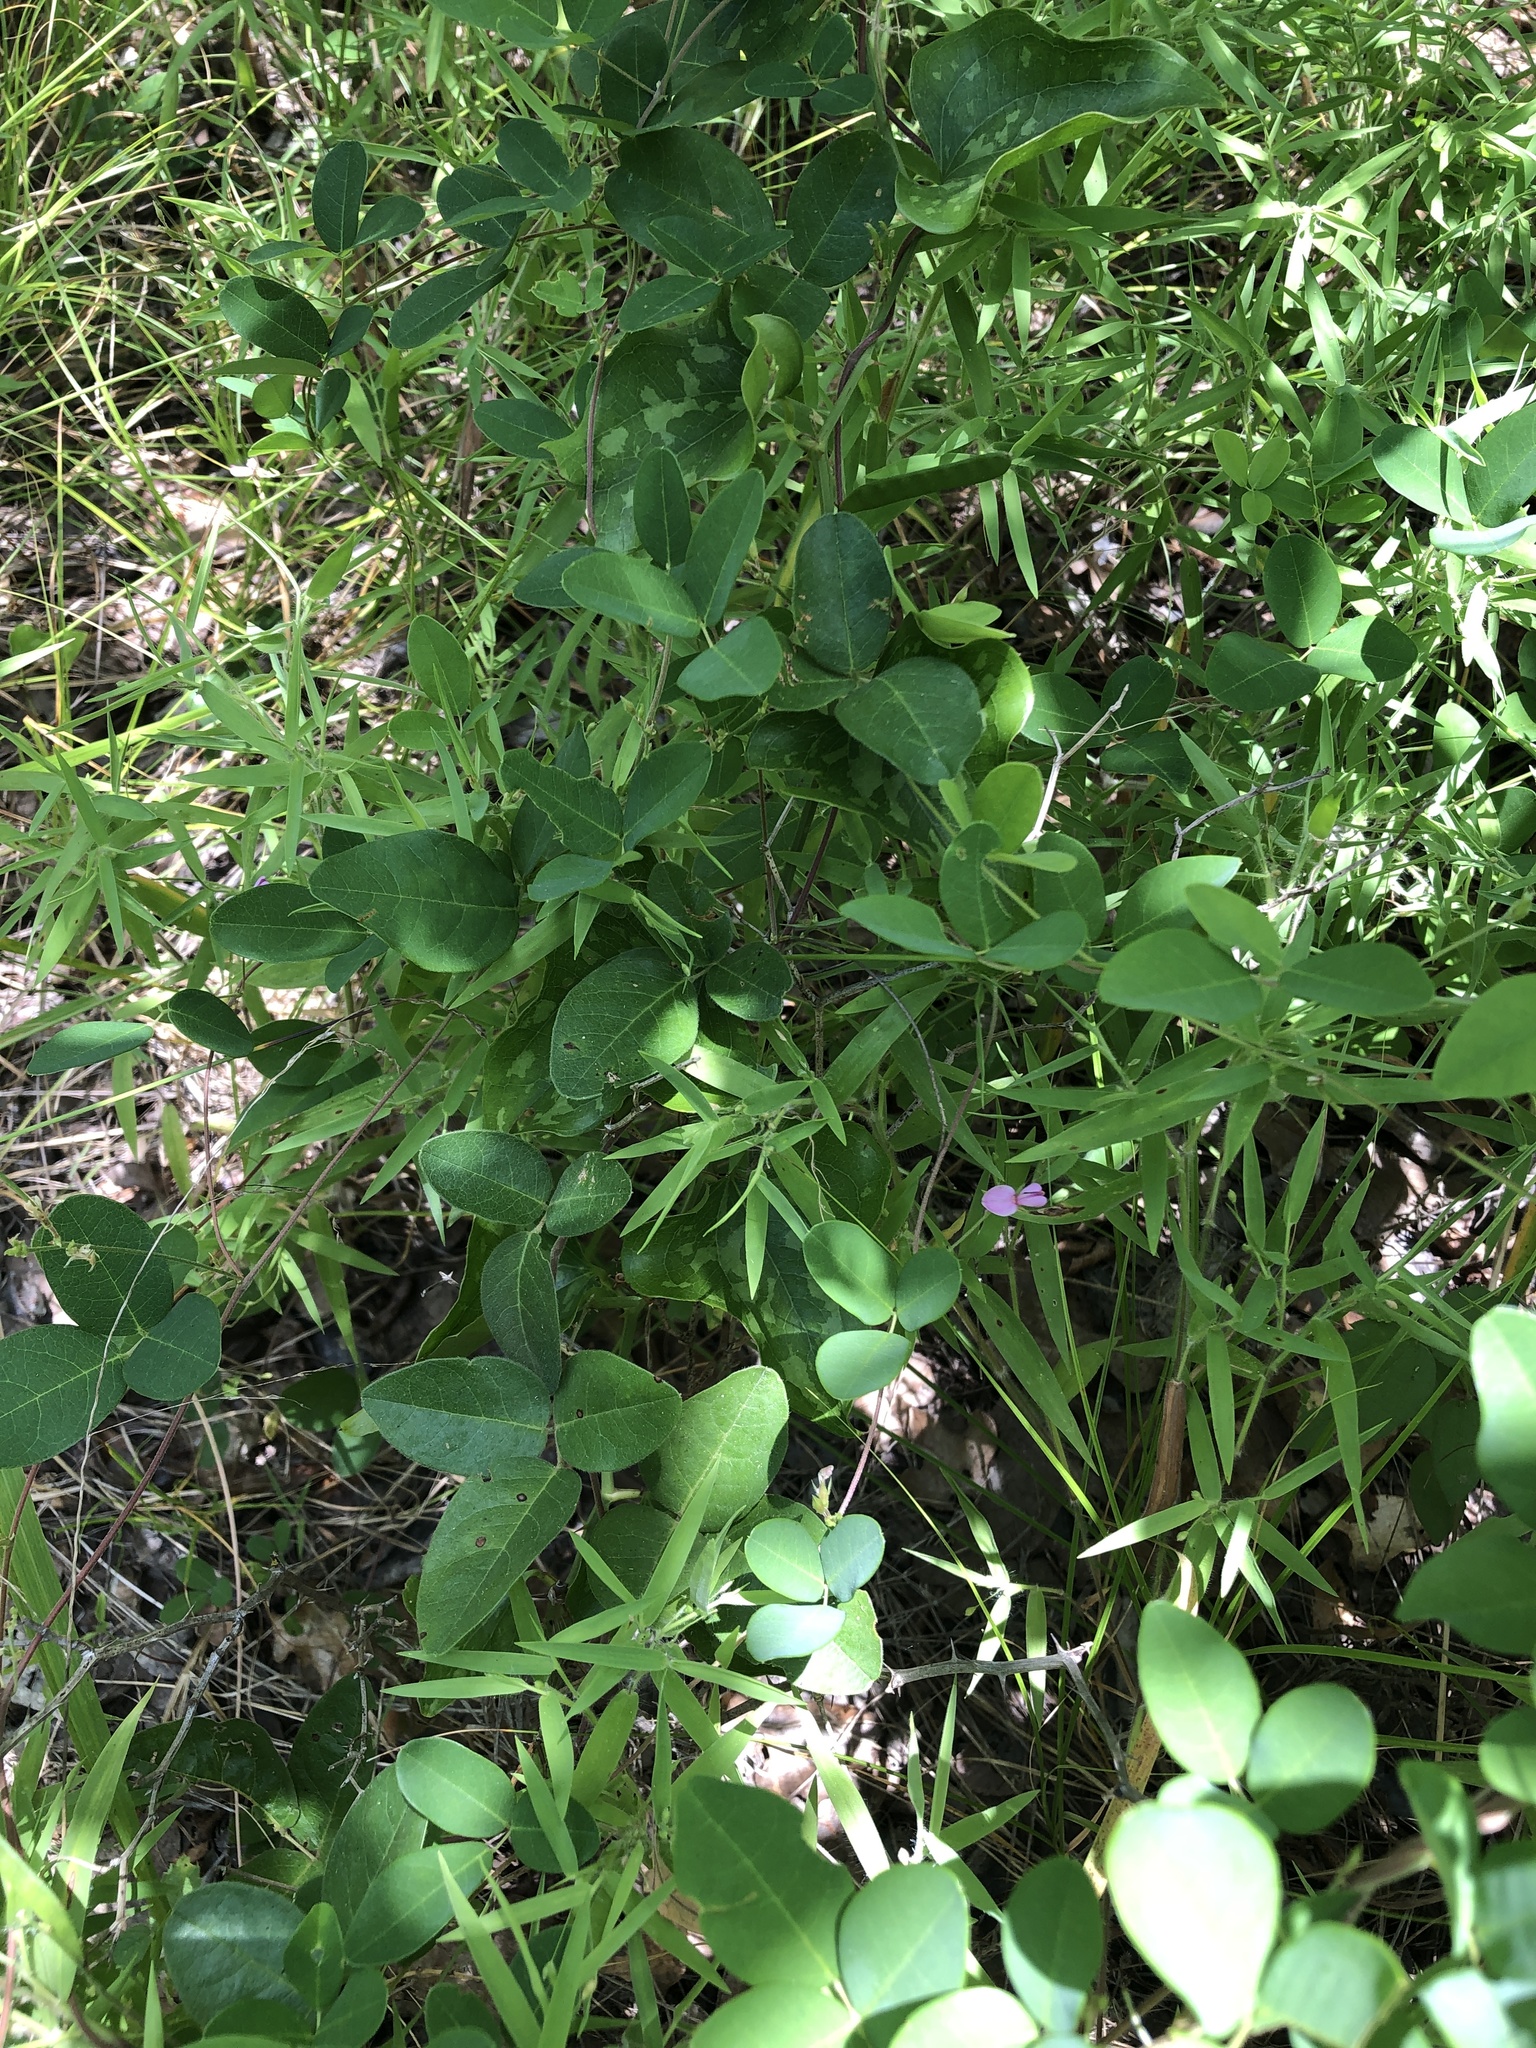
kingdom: Plantae
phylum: Tracheophyta
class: Magnoliopsida
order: Fabales
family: Fabaceae
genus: Galactia
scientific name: Galactia regularis
